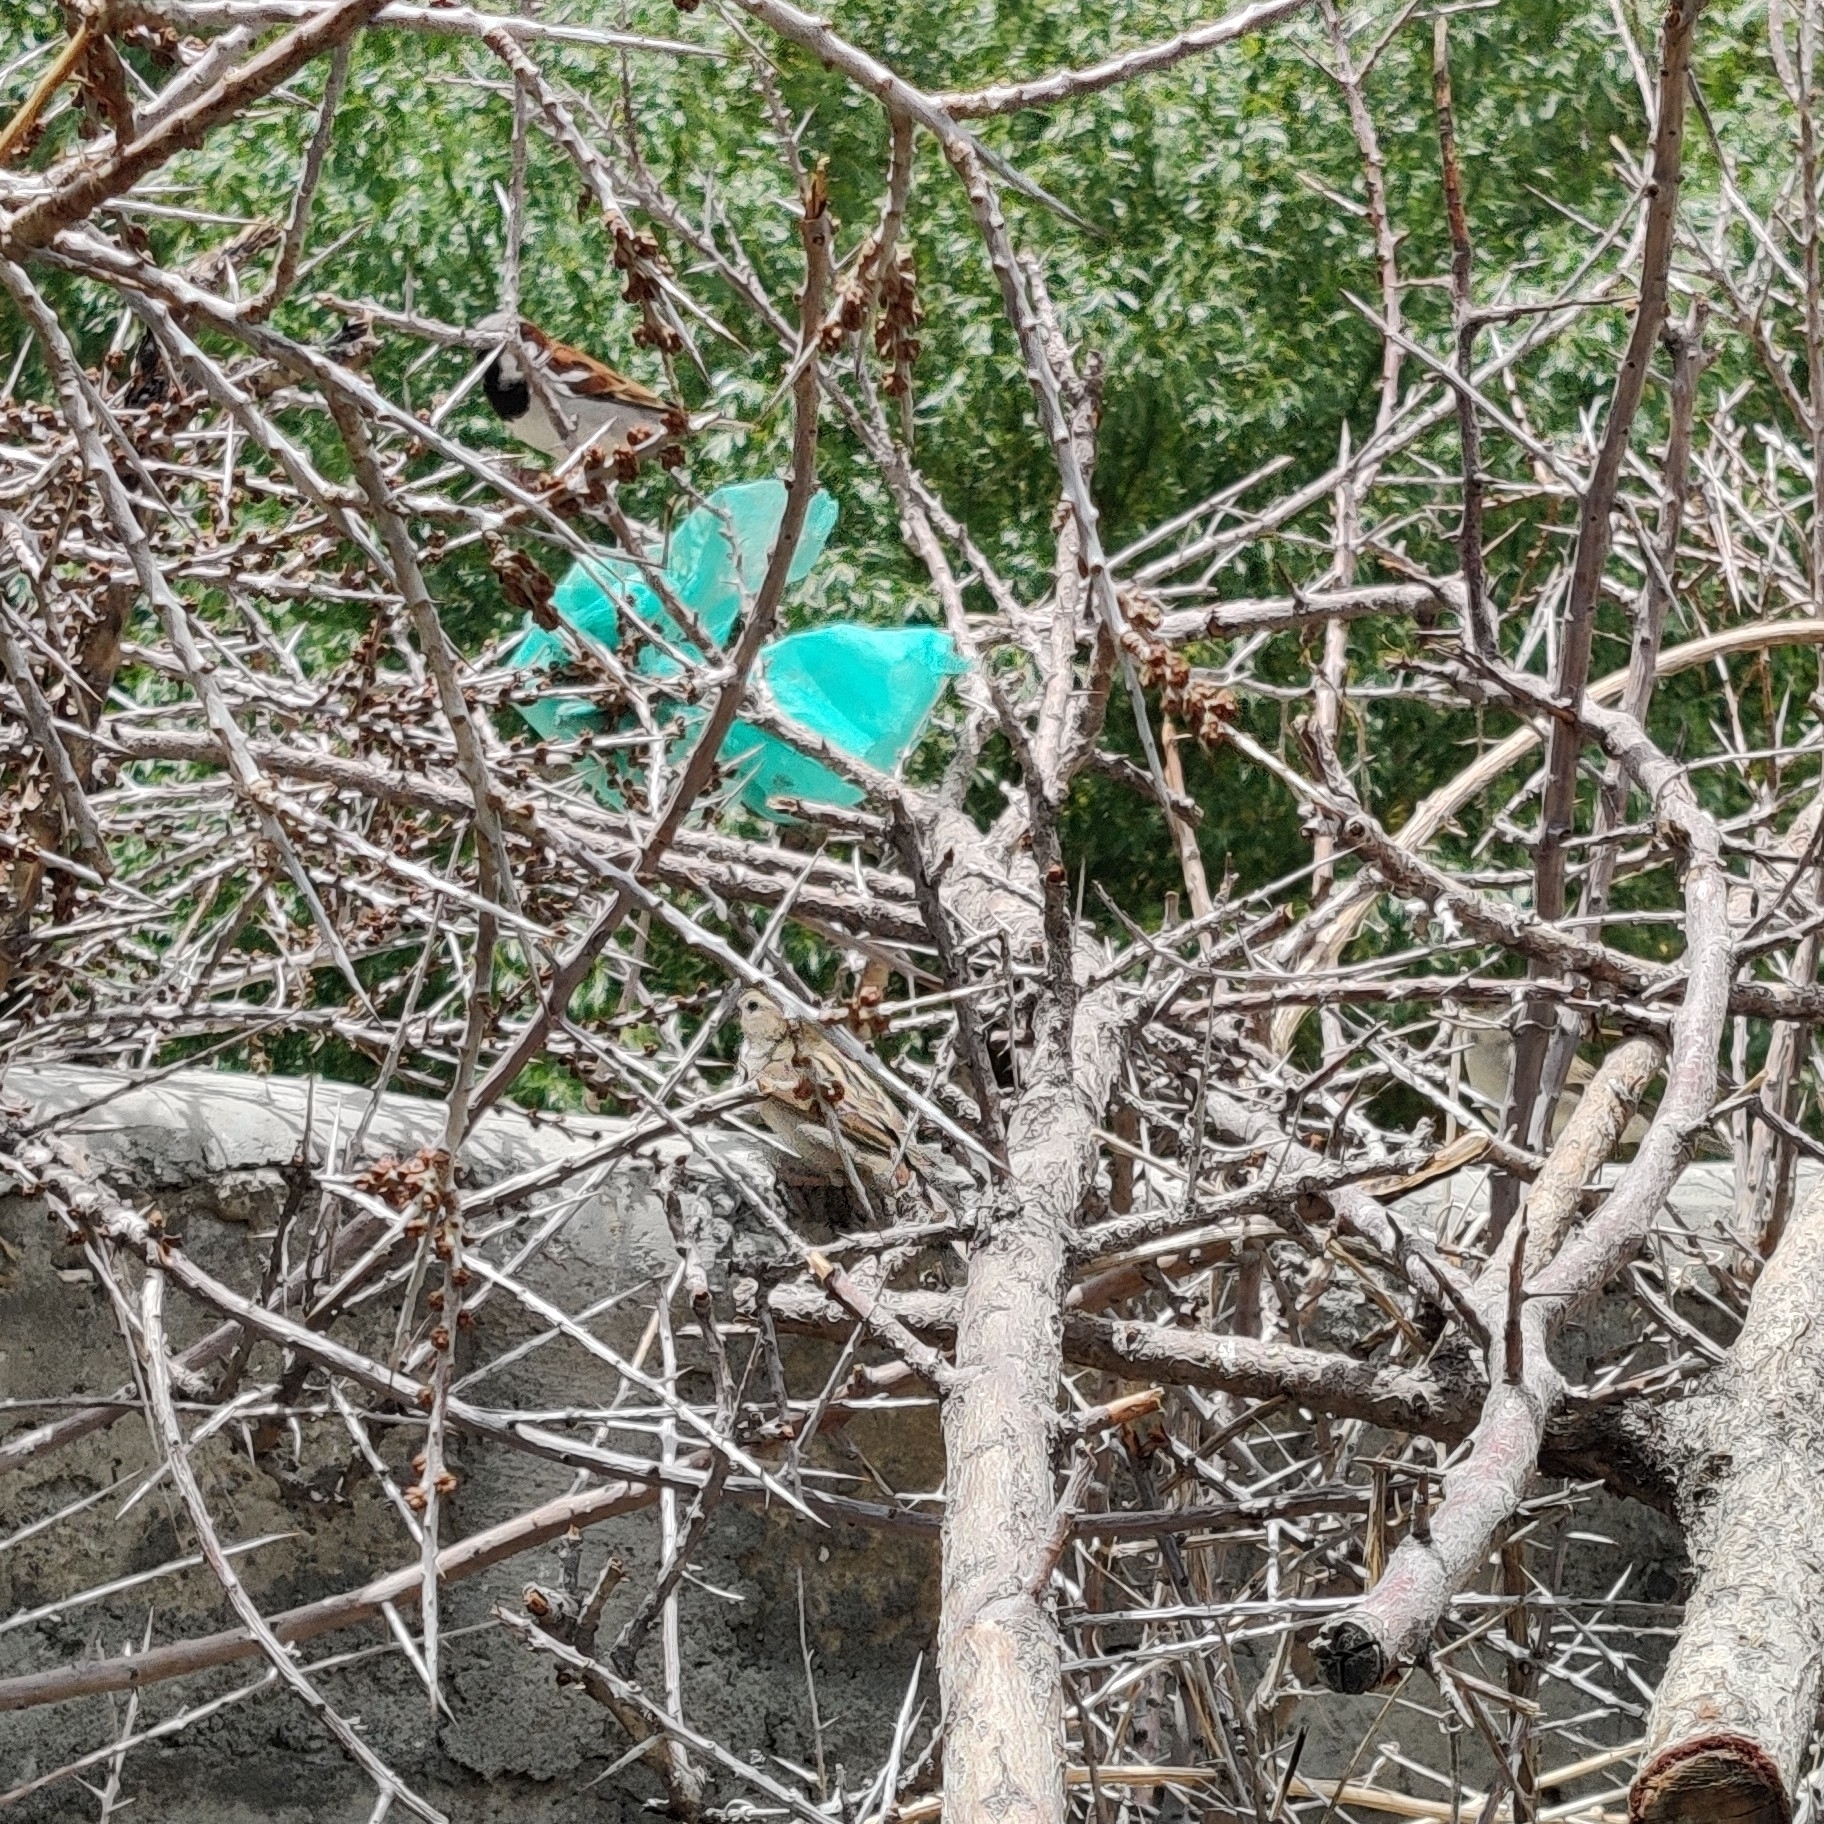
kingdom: Animalia
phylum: Chordata
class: Aves
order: Passeriformes
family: Passeridae
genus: Passer
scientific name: Passer domesticus
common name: House sparrow
